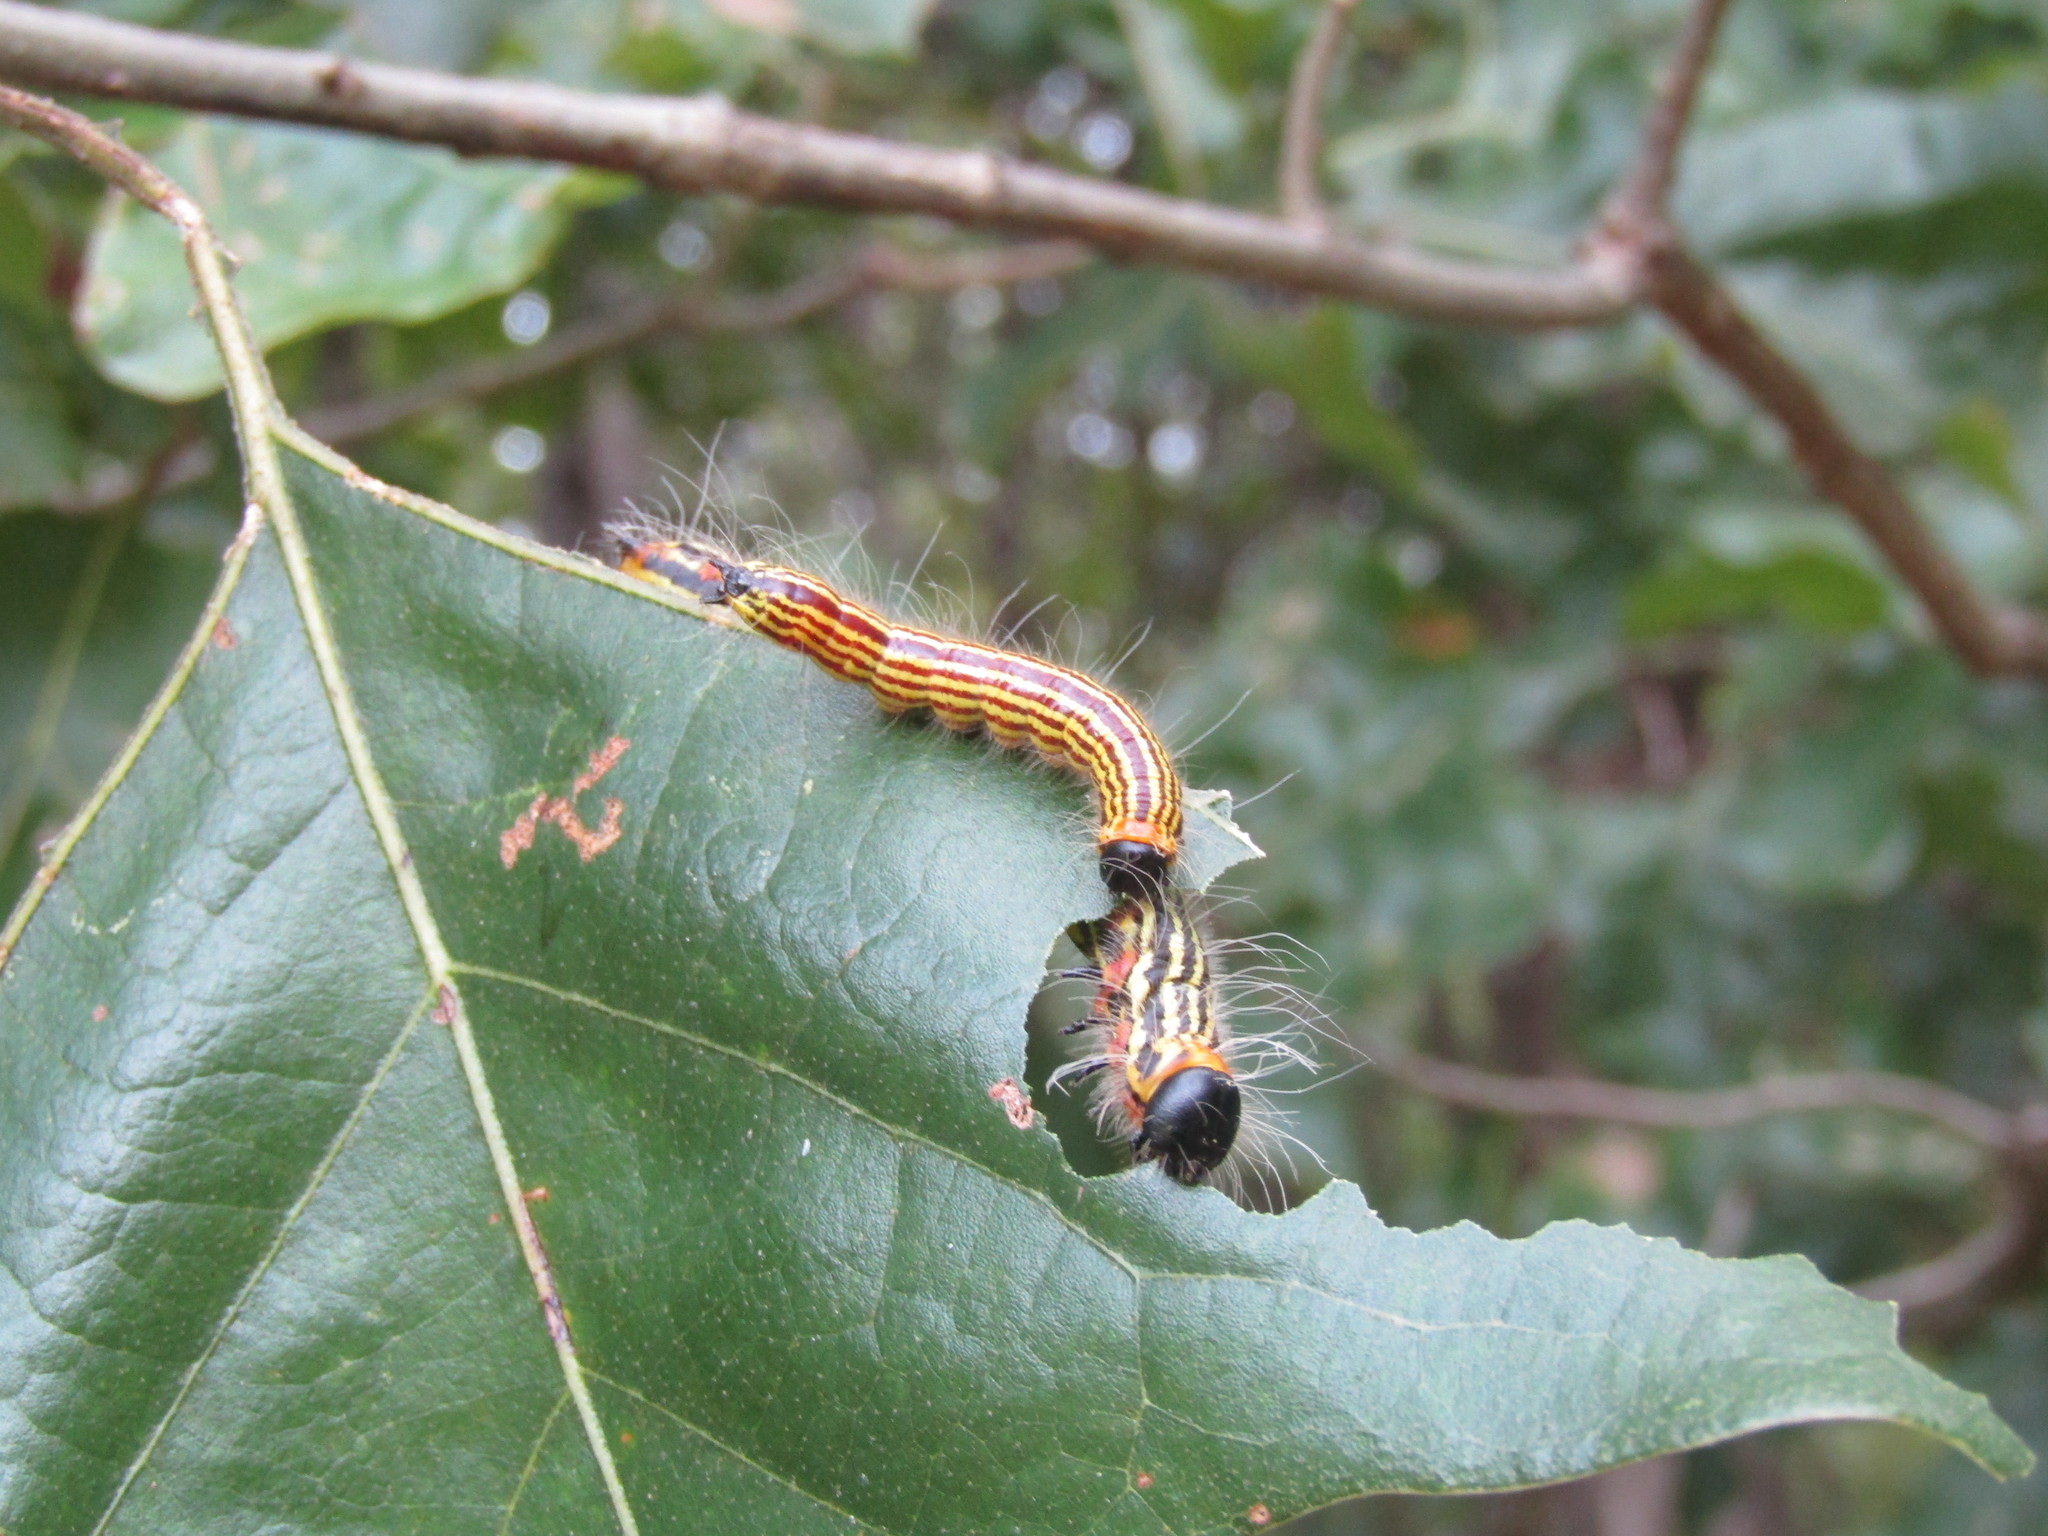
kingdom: Animalia
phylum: Arthropoda
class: Insecta
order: Lepidoptera
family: Notodontidae
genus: Datana
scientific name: Datana ministra
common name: Yellow-necked caterpillar moth
